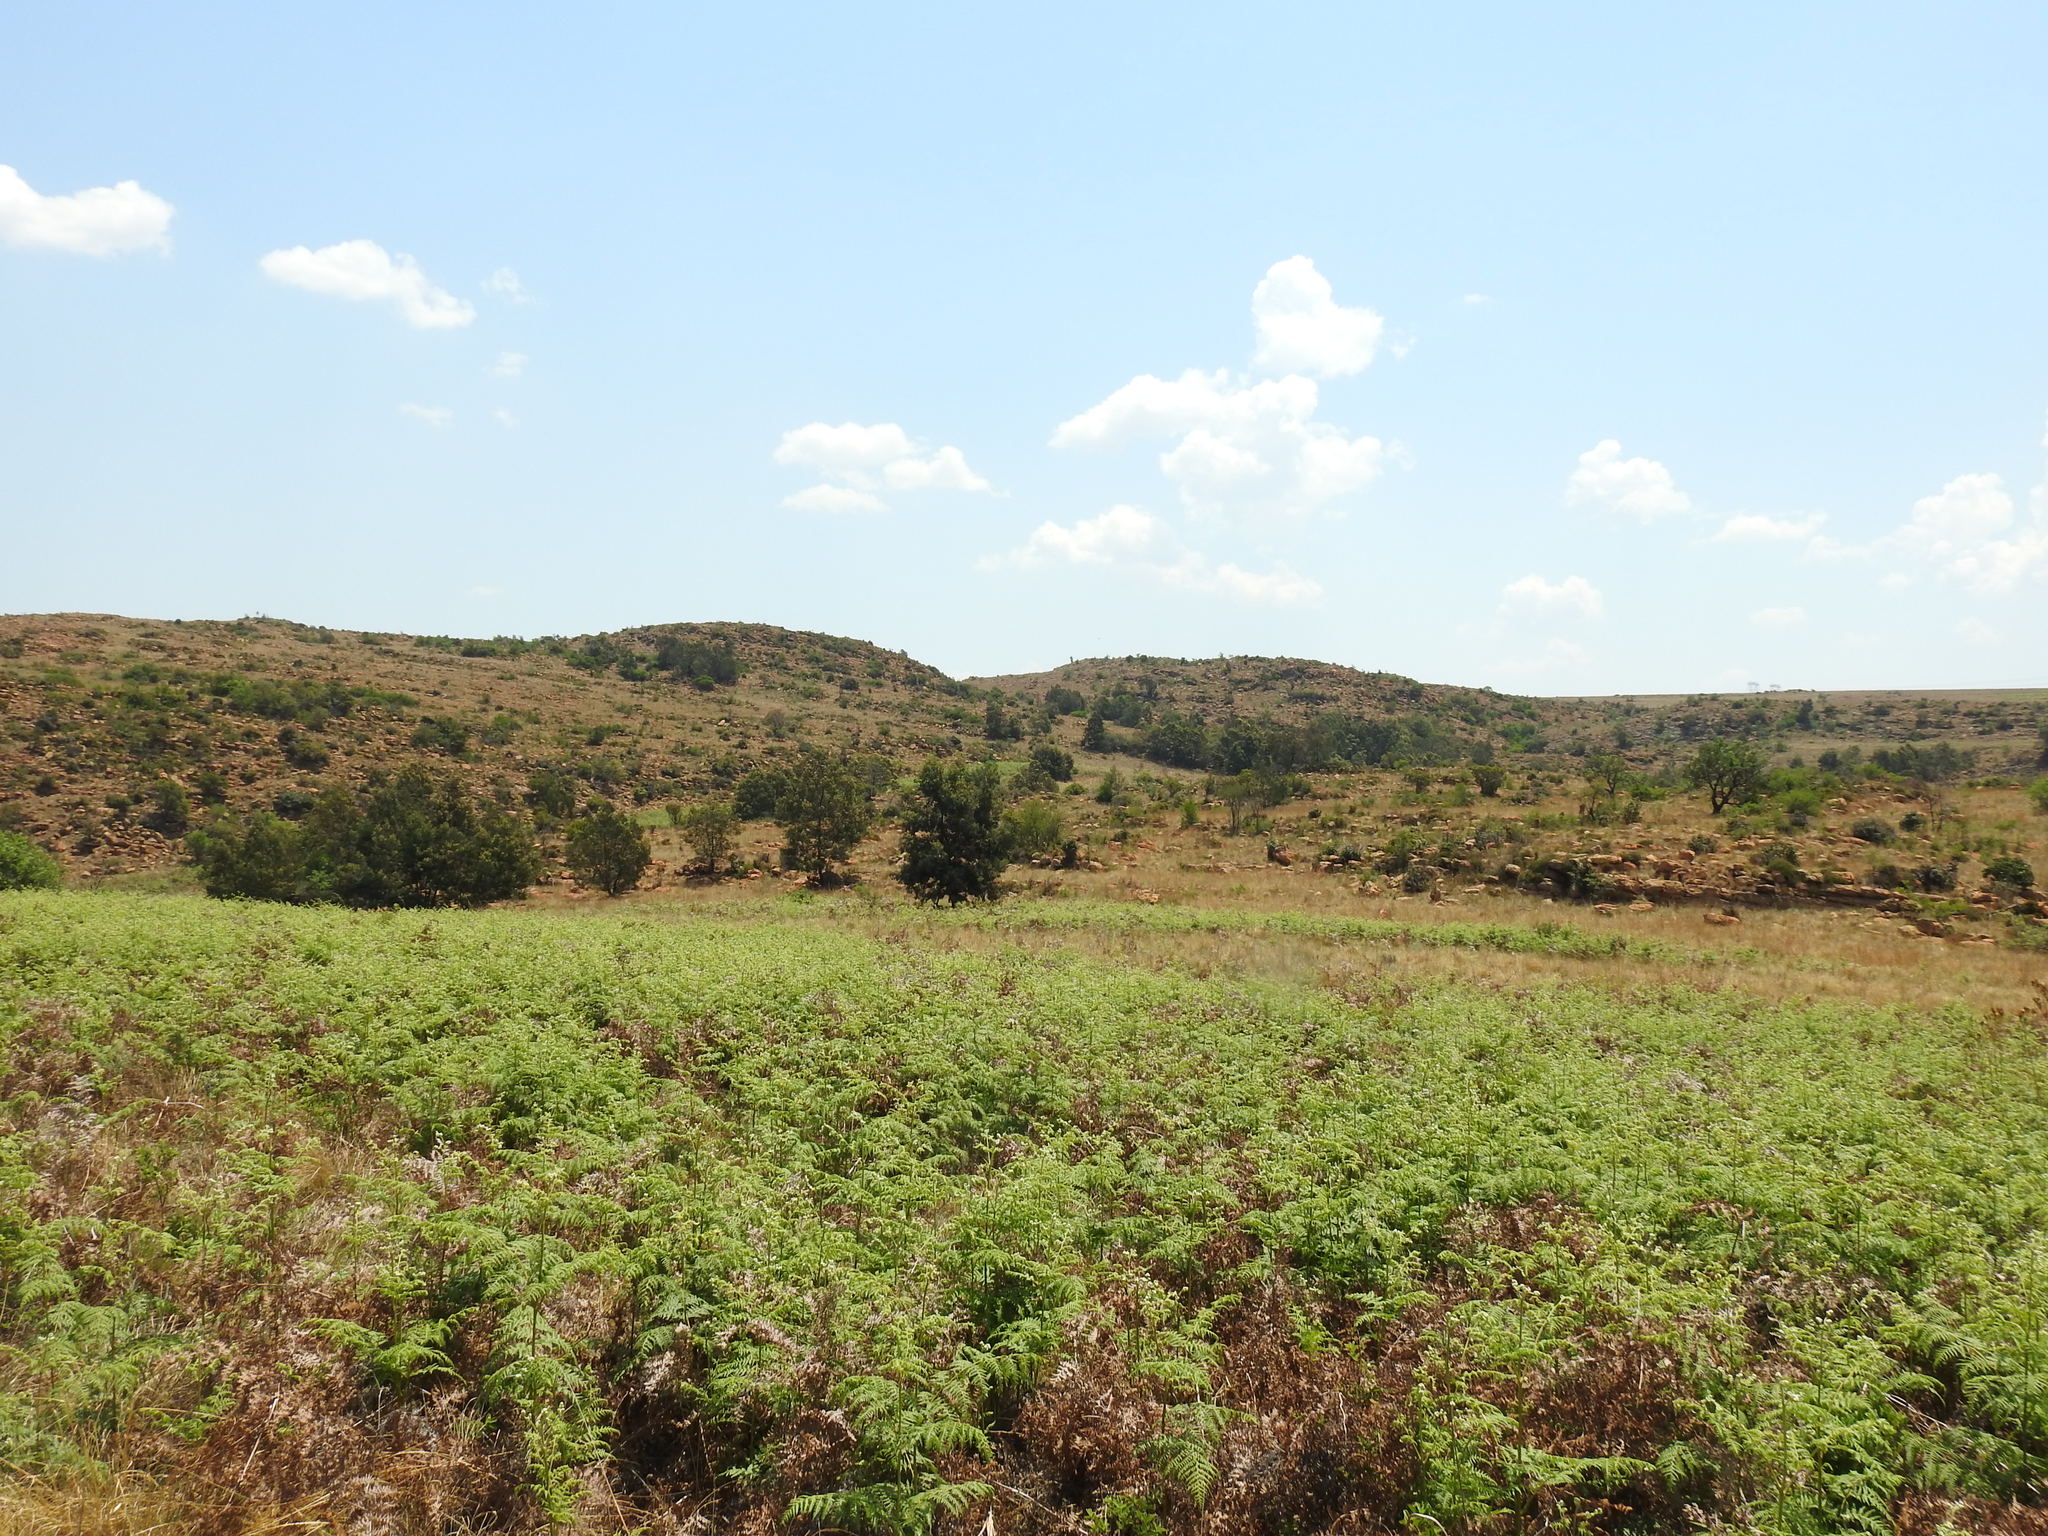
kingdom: Plantae
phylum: Tracheophyta
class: Polypodiopsida
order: Polypodiales
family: Dennstaedtiaceae
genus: Pteridium
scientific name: Pteridium aquilinum
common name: Bracken
